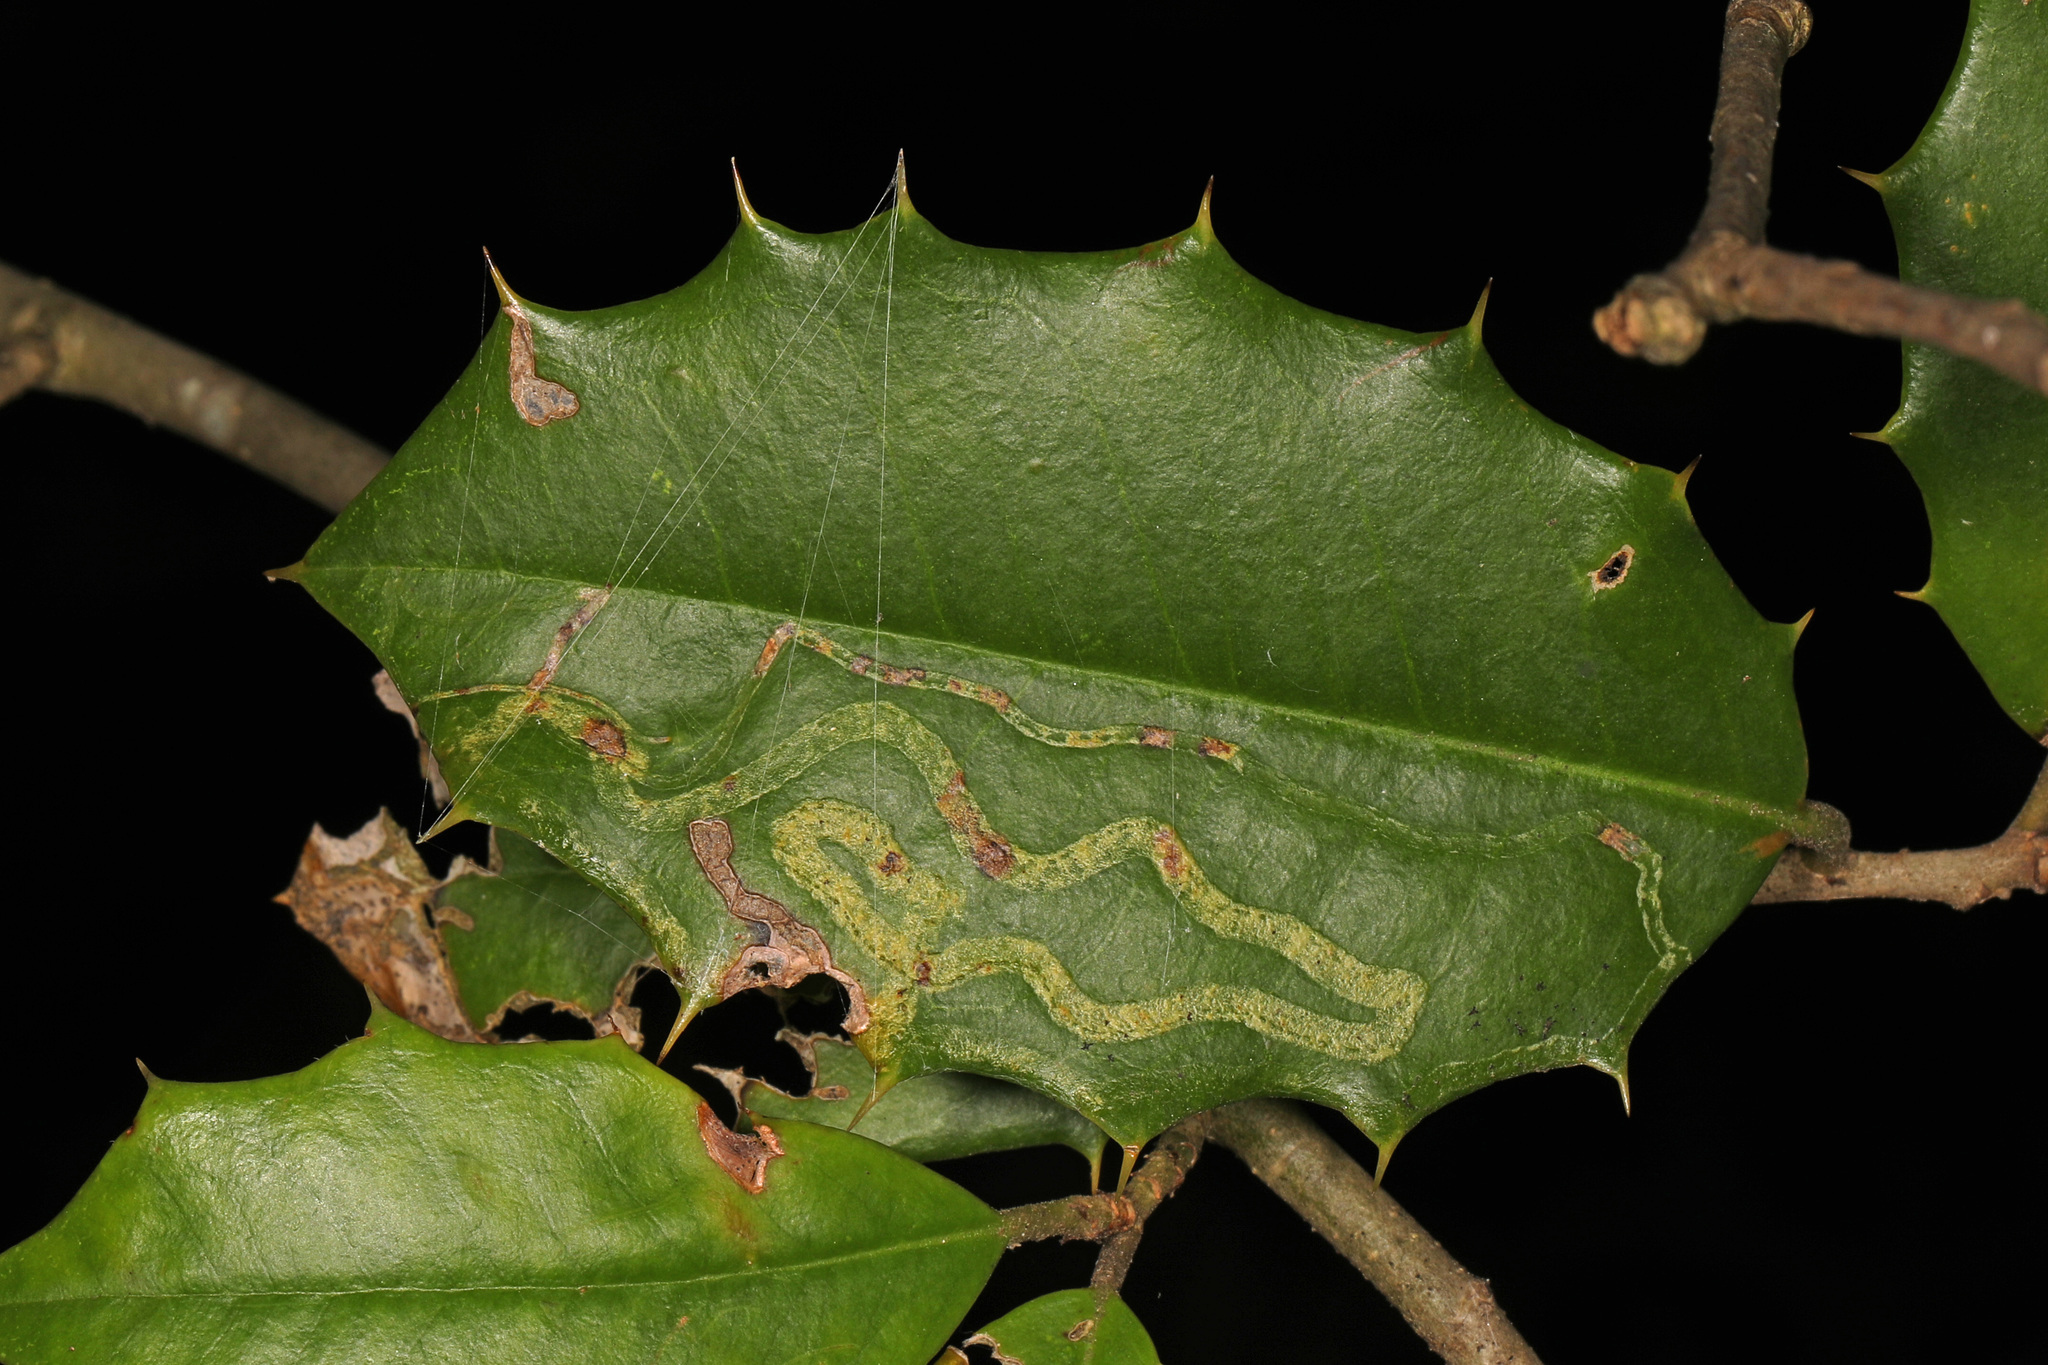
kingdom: Animalia
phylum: Arthropoda
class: Insecta
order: Diptera
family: Agromyzidae
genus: Phytomyza
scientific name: Phytomyza opacae
